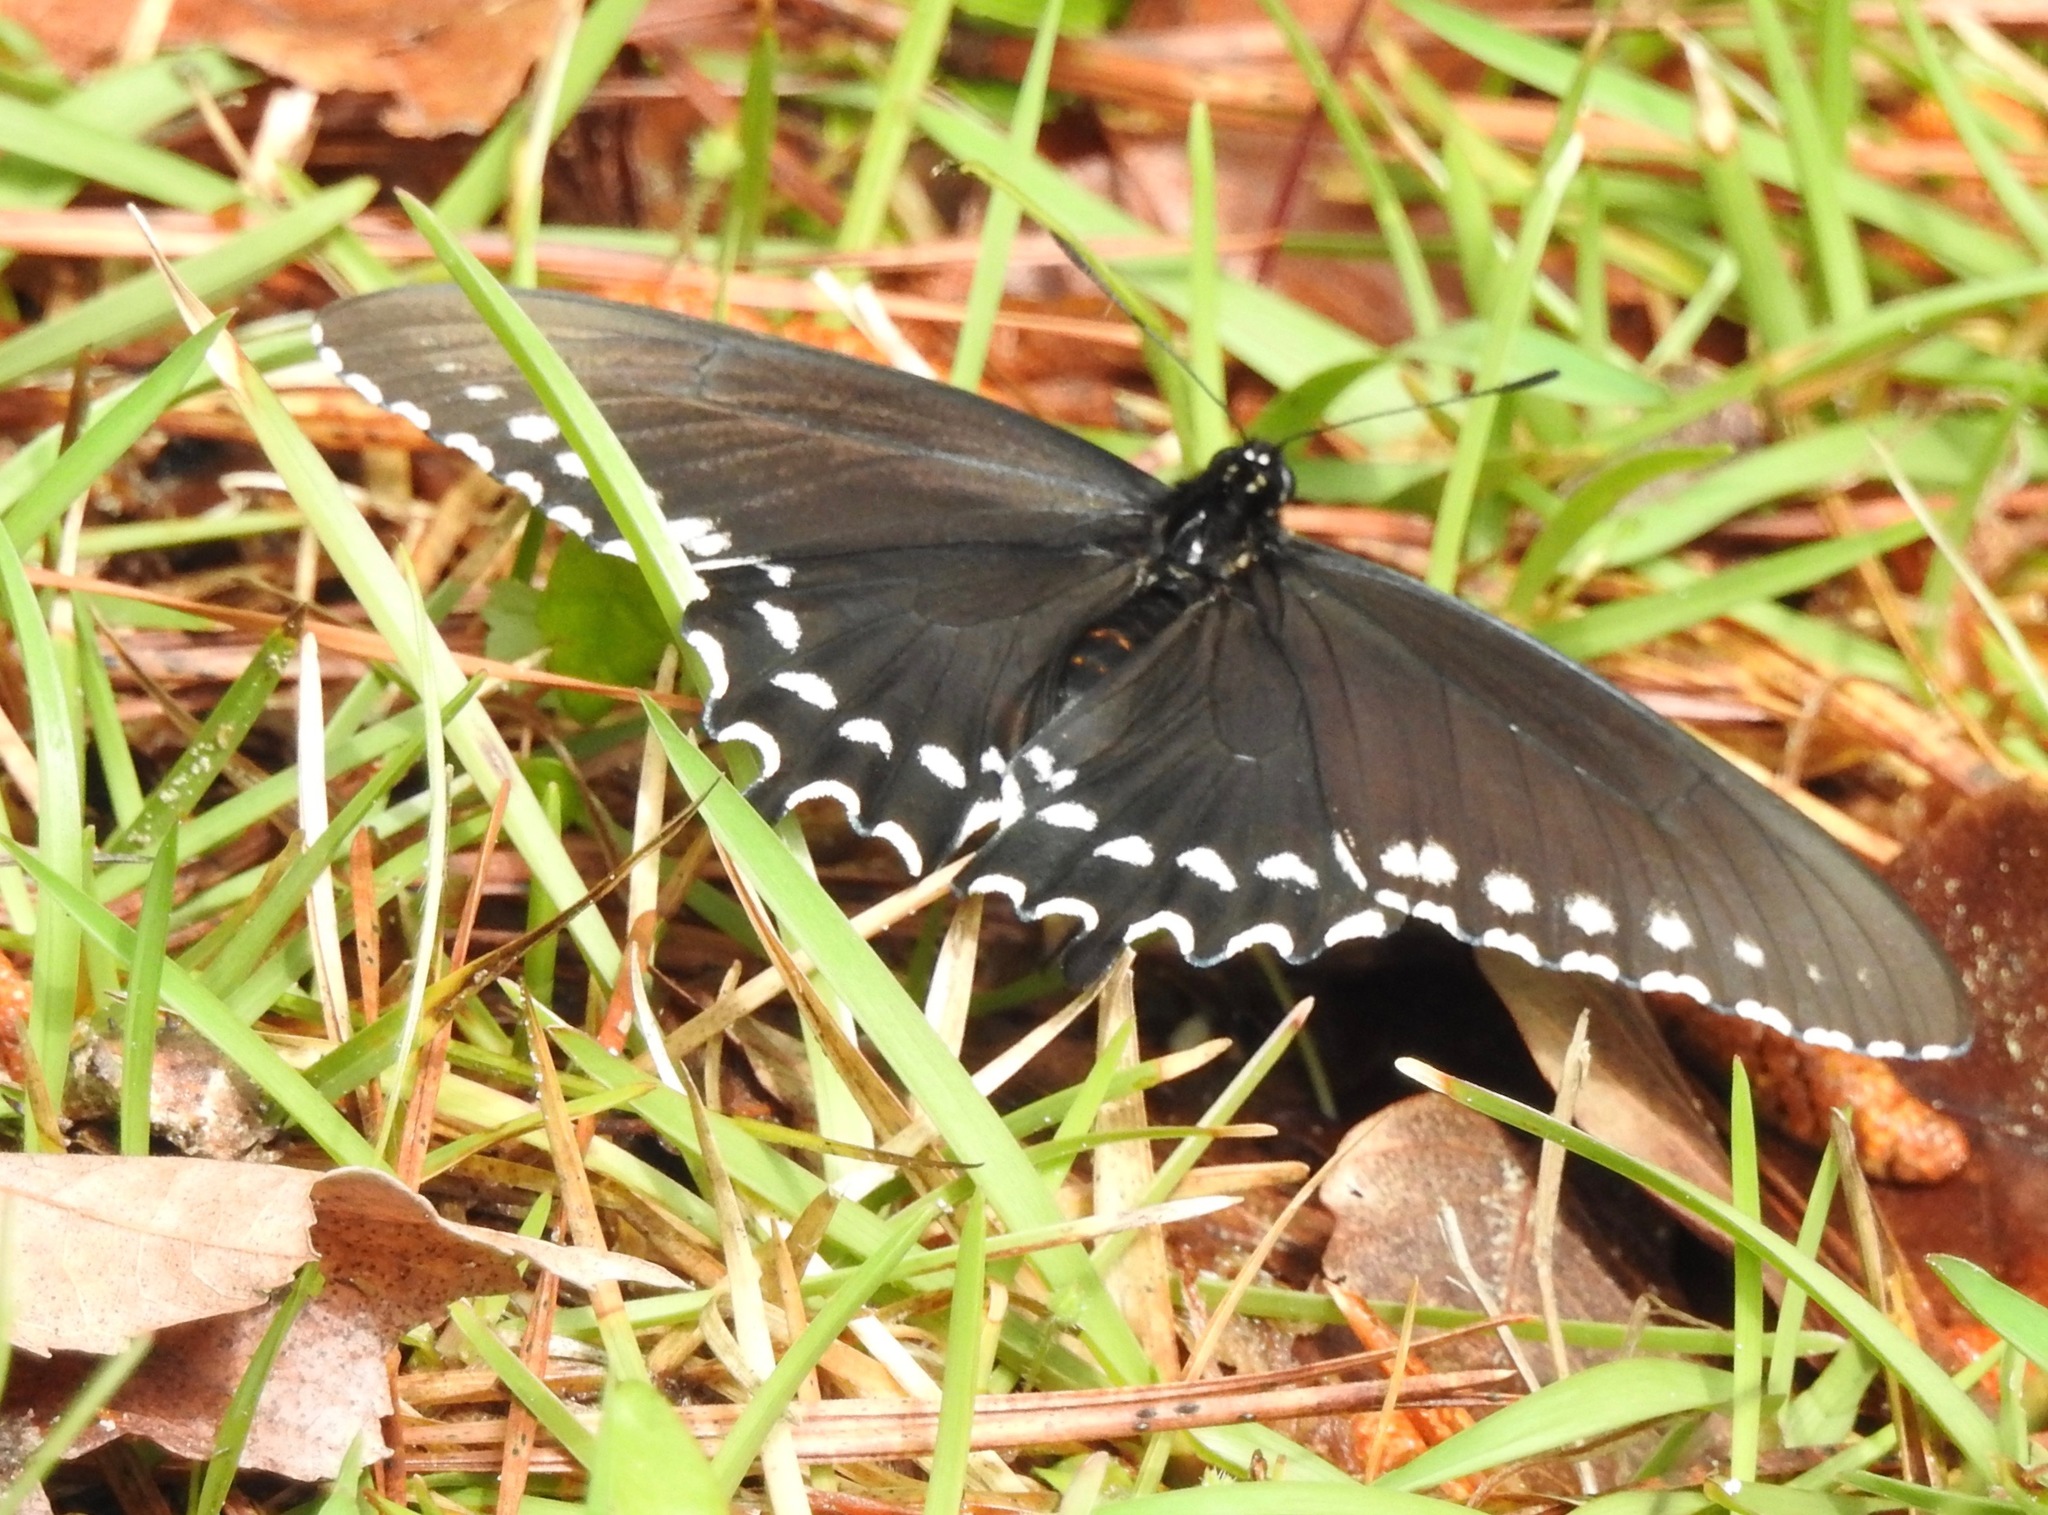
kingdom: Animalia
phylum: Arthropoda
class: Insecta
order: Lepidoptera
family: Papilionidae
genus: Battus
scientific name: Battus philenor
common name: Pipevine swallowtail
